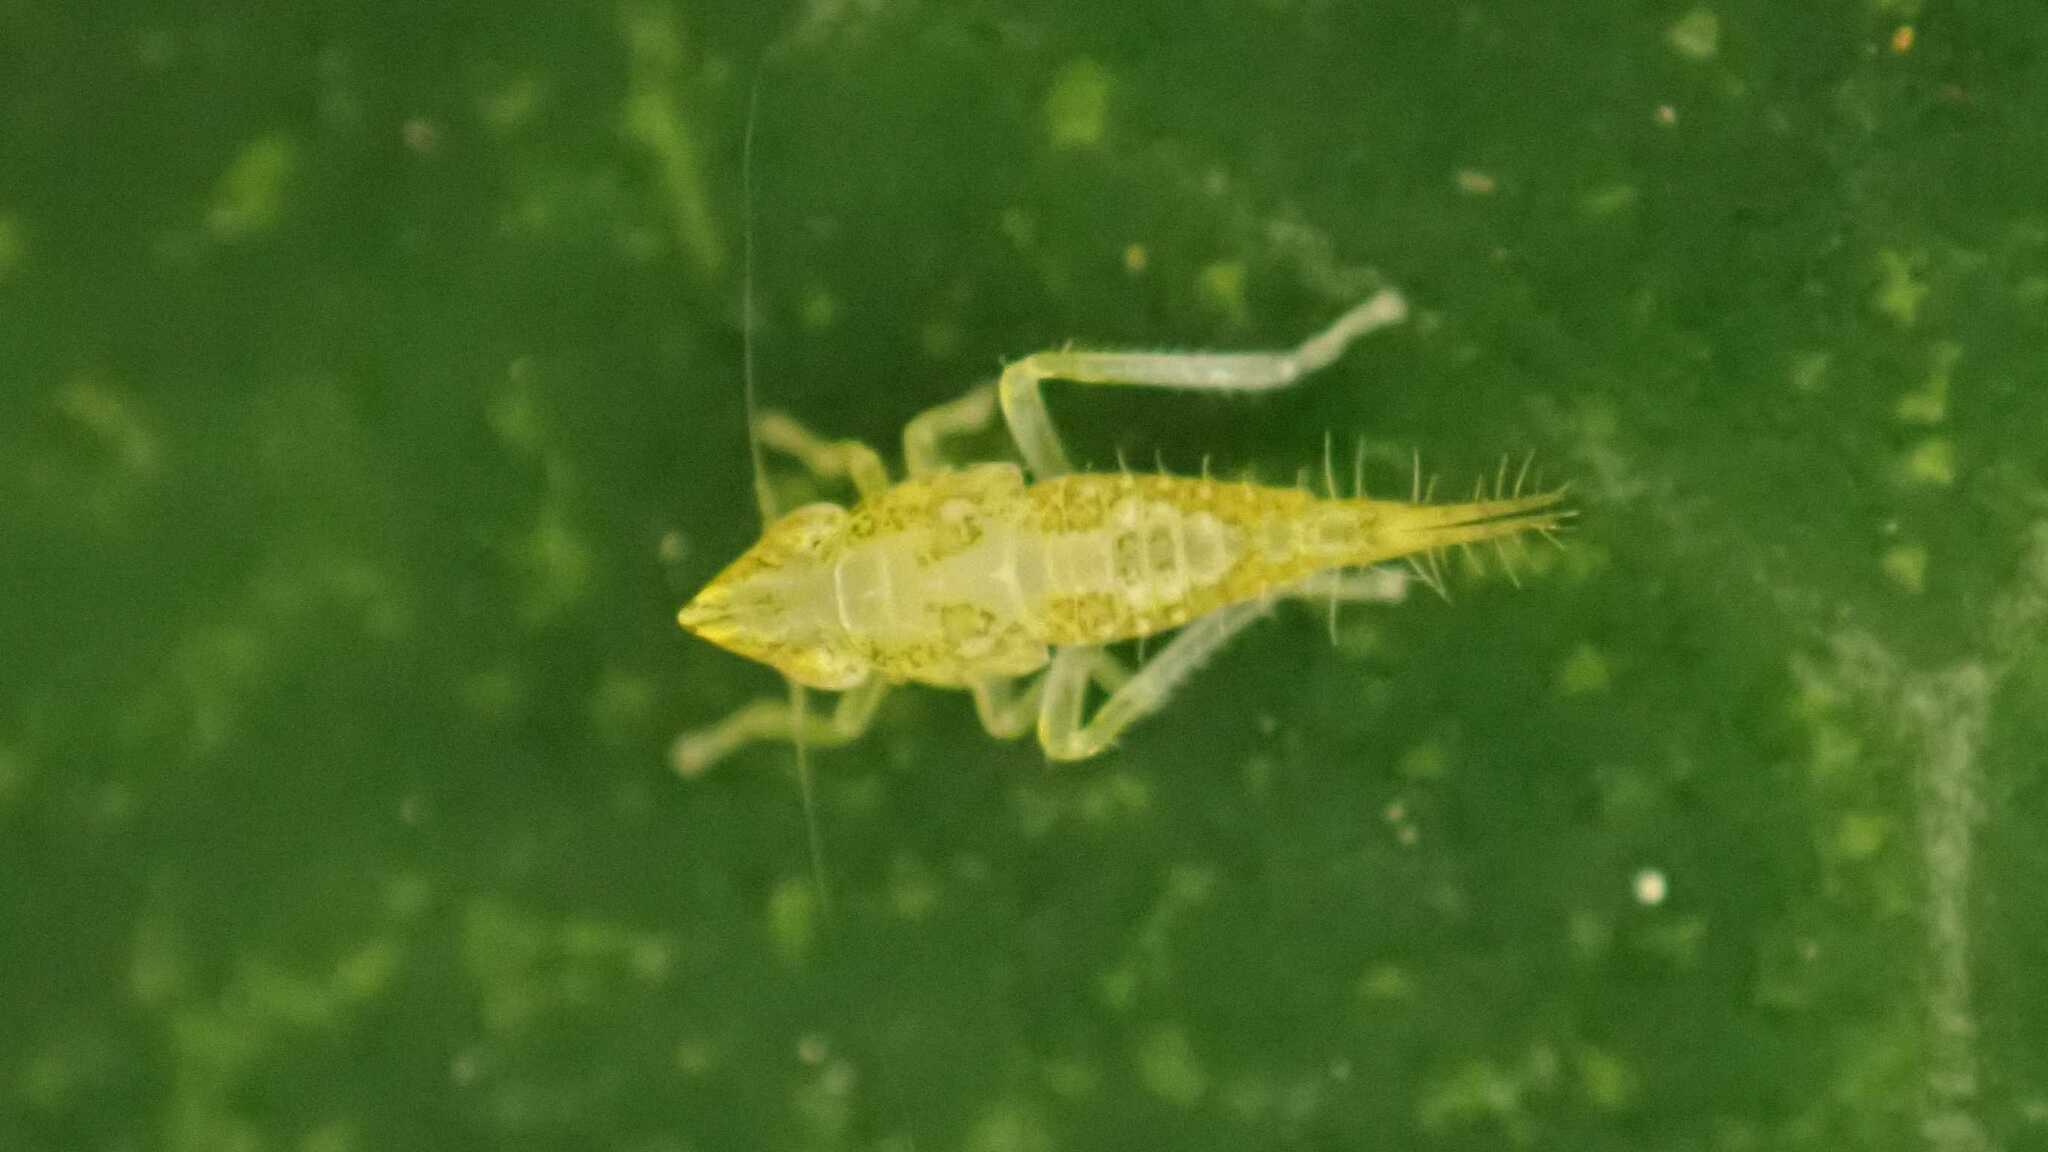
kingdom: Animalia
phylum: Arthropoda
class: Insecta
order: Hemiptera
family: Cicadellidae
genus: Japananus
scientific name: Japananus hyalinus
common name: The japanese maple leafhopper
